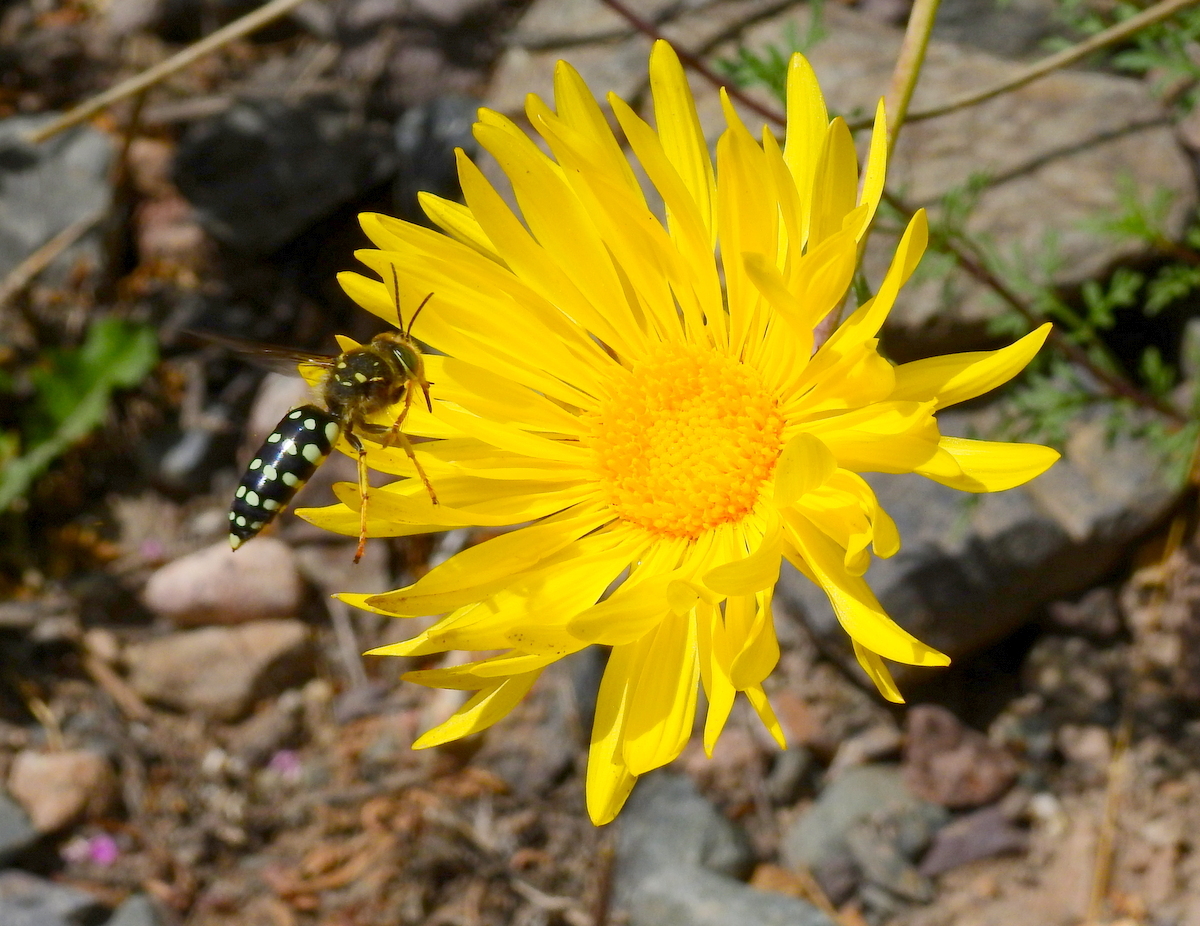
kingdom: Animalia
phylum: Arthropoda
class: Insecta
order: Hymenoptera
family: Crabronidae
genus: Trichostictia
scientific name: Trichostictia vulpina
